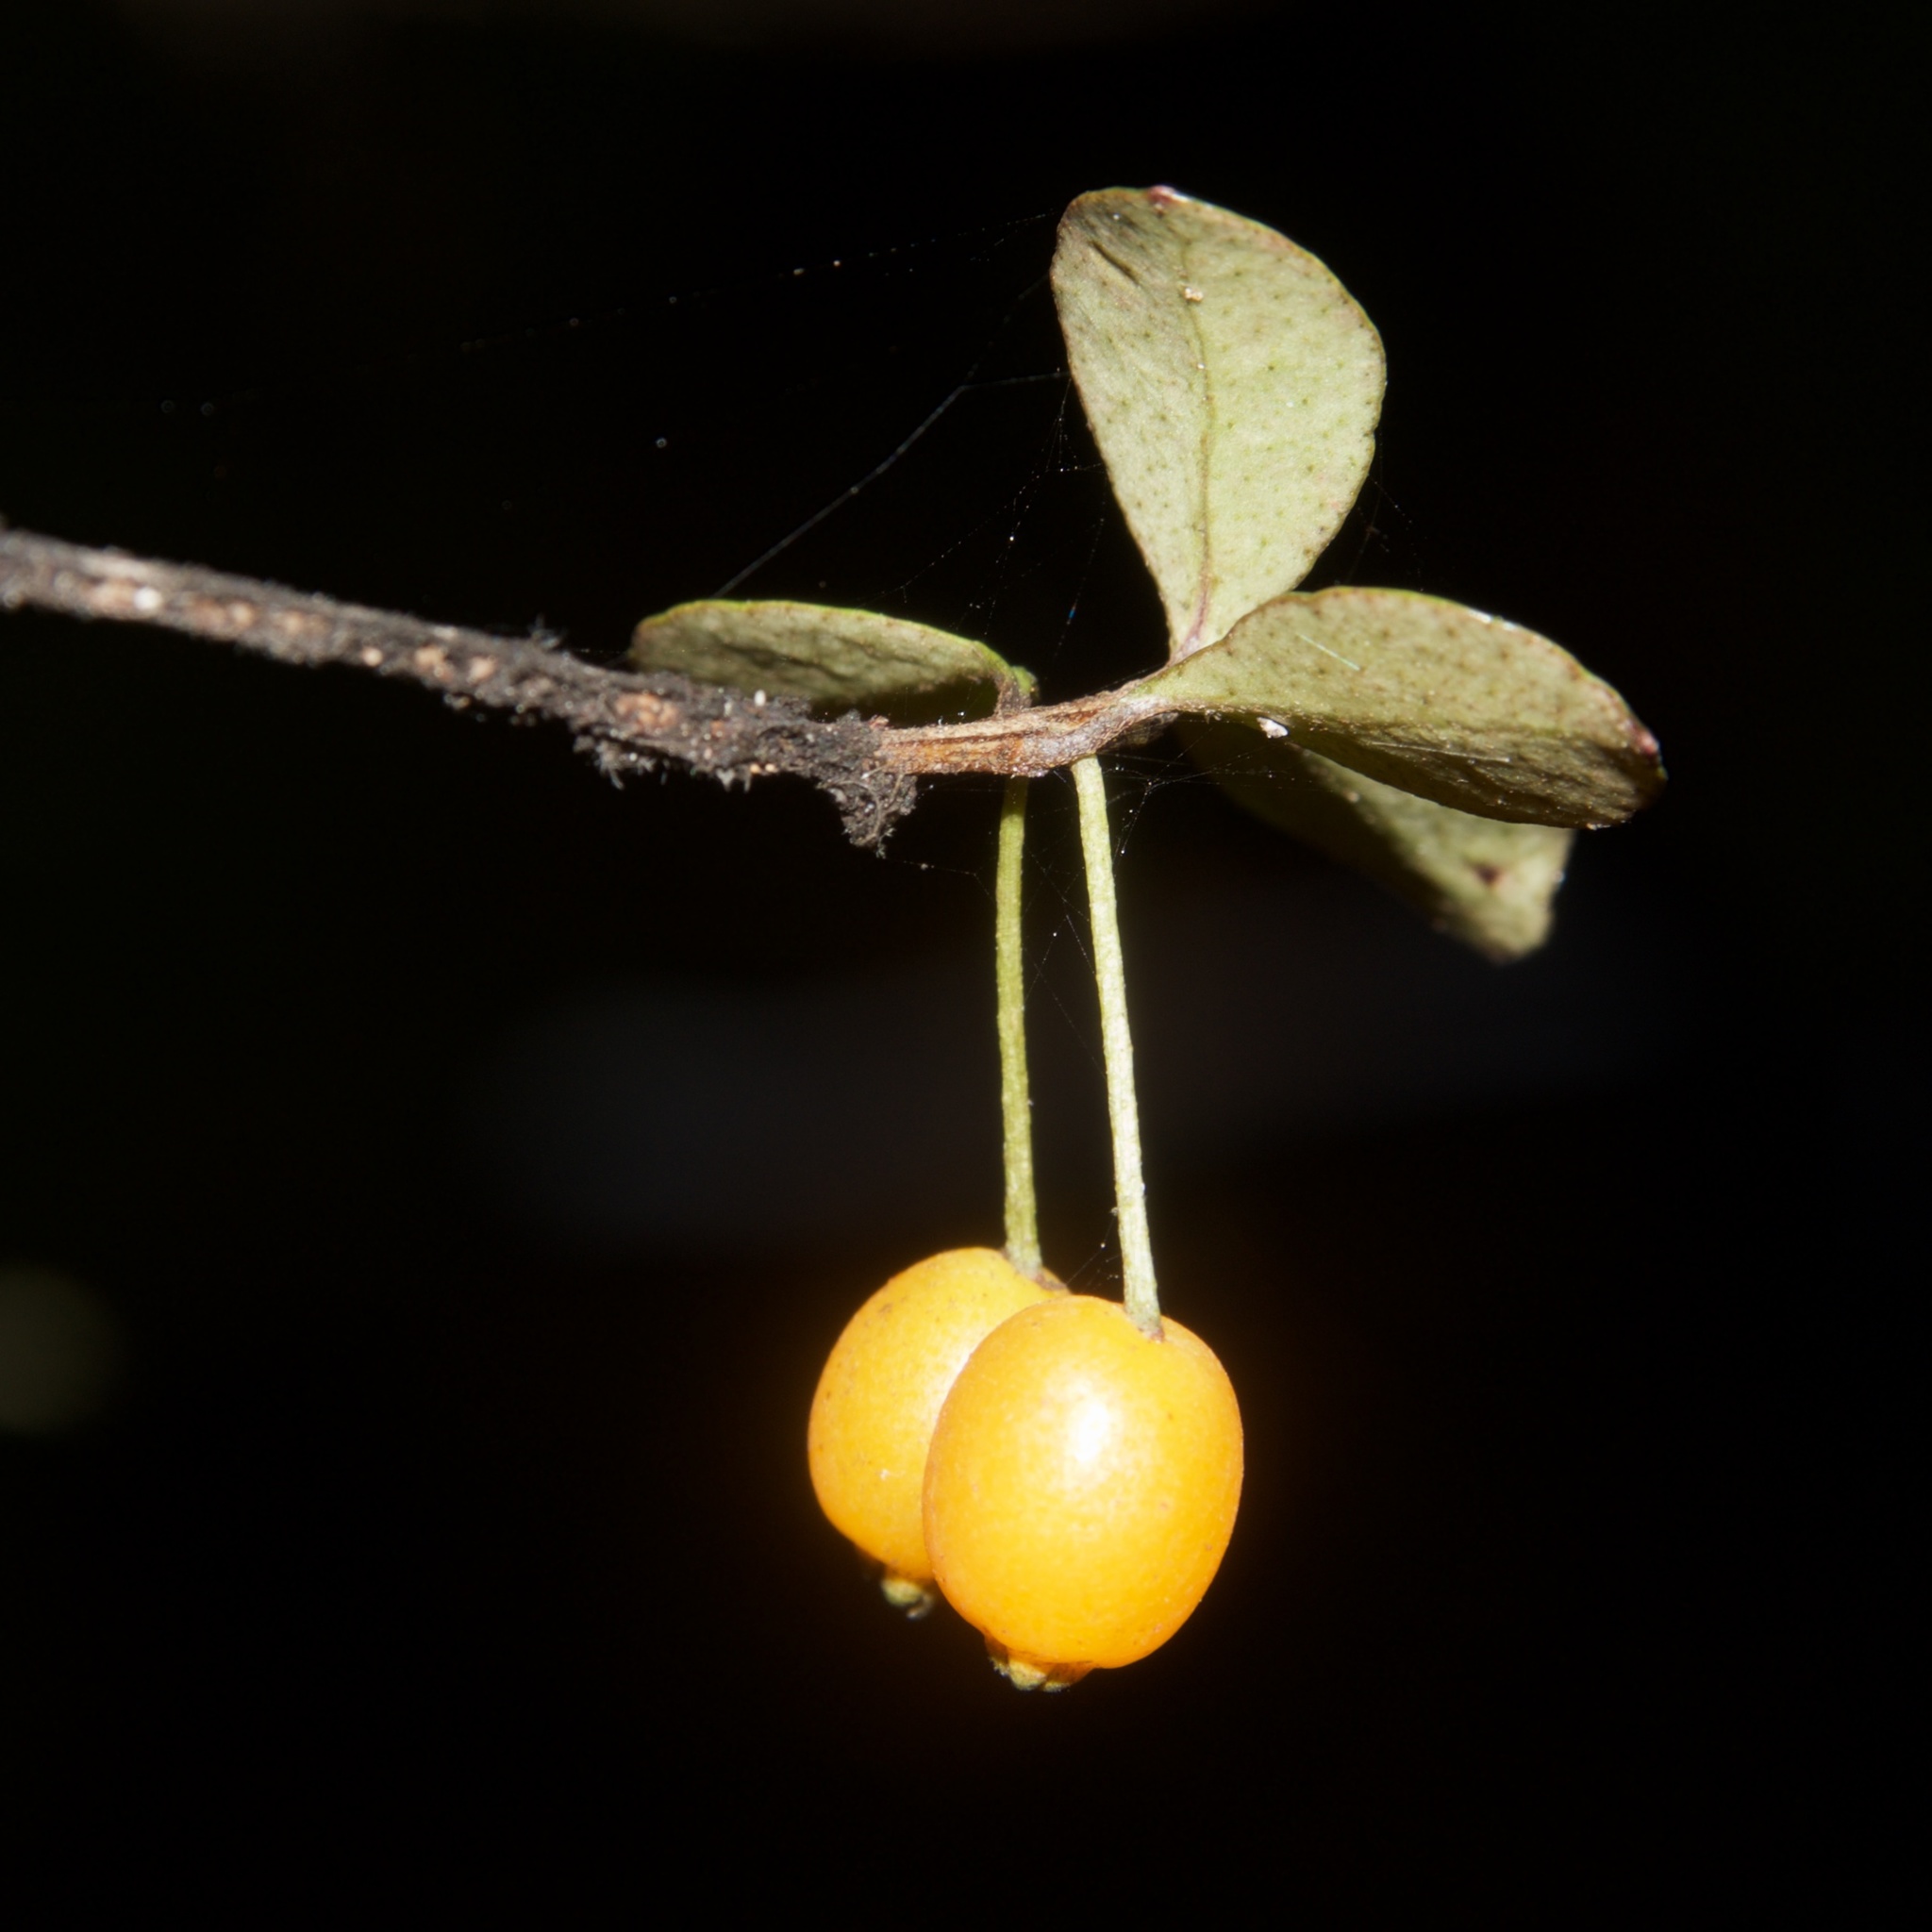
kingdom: Plantae
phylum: Tracheophyta
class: Magnoliopsida
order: Myrtales
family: Myrtaceae
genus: Neomyrtus
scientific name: Neomyrtus pedunculata
